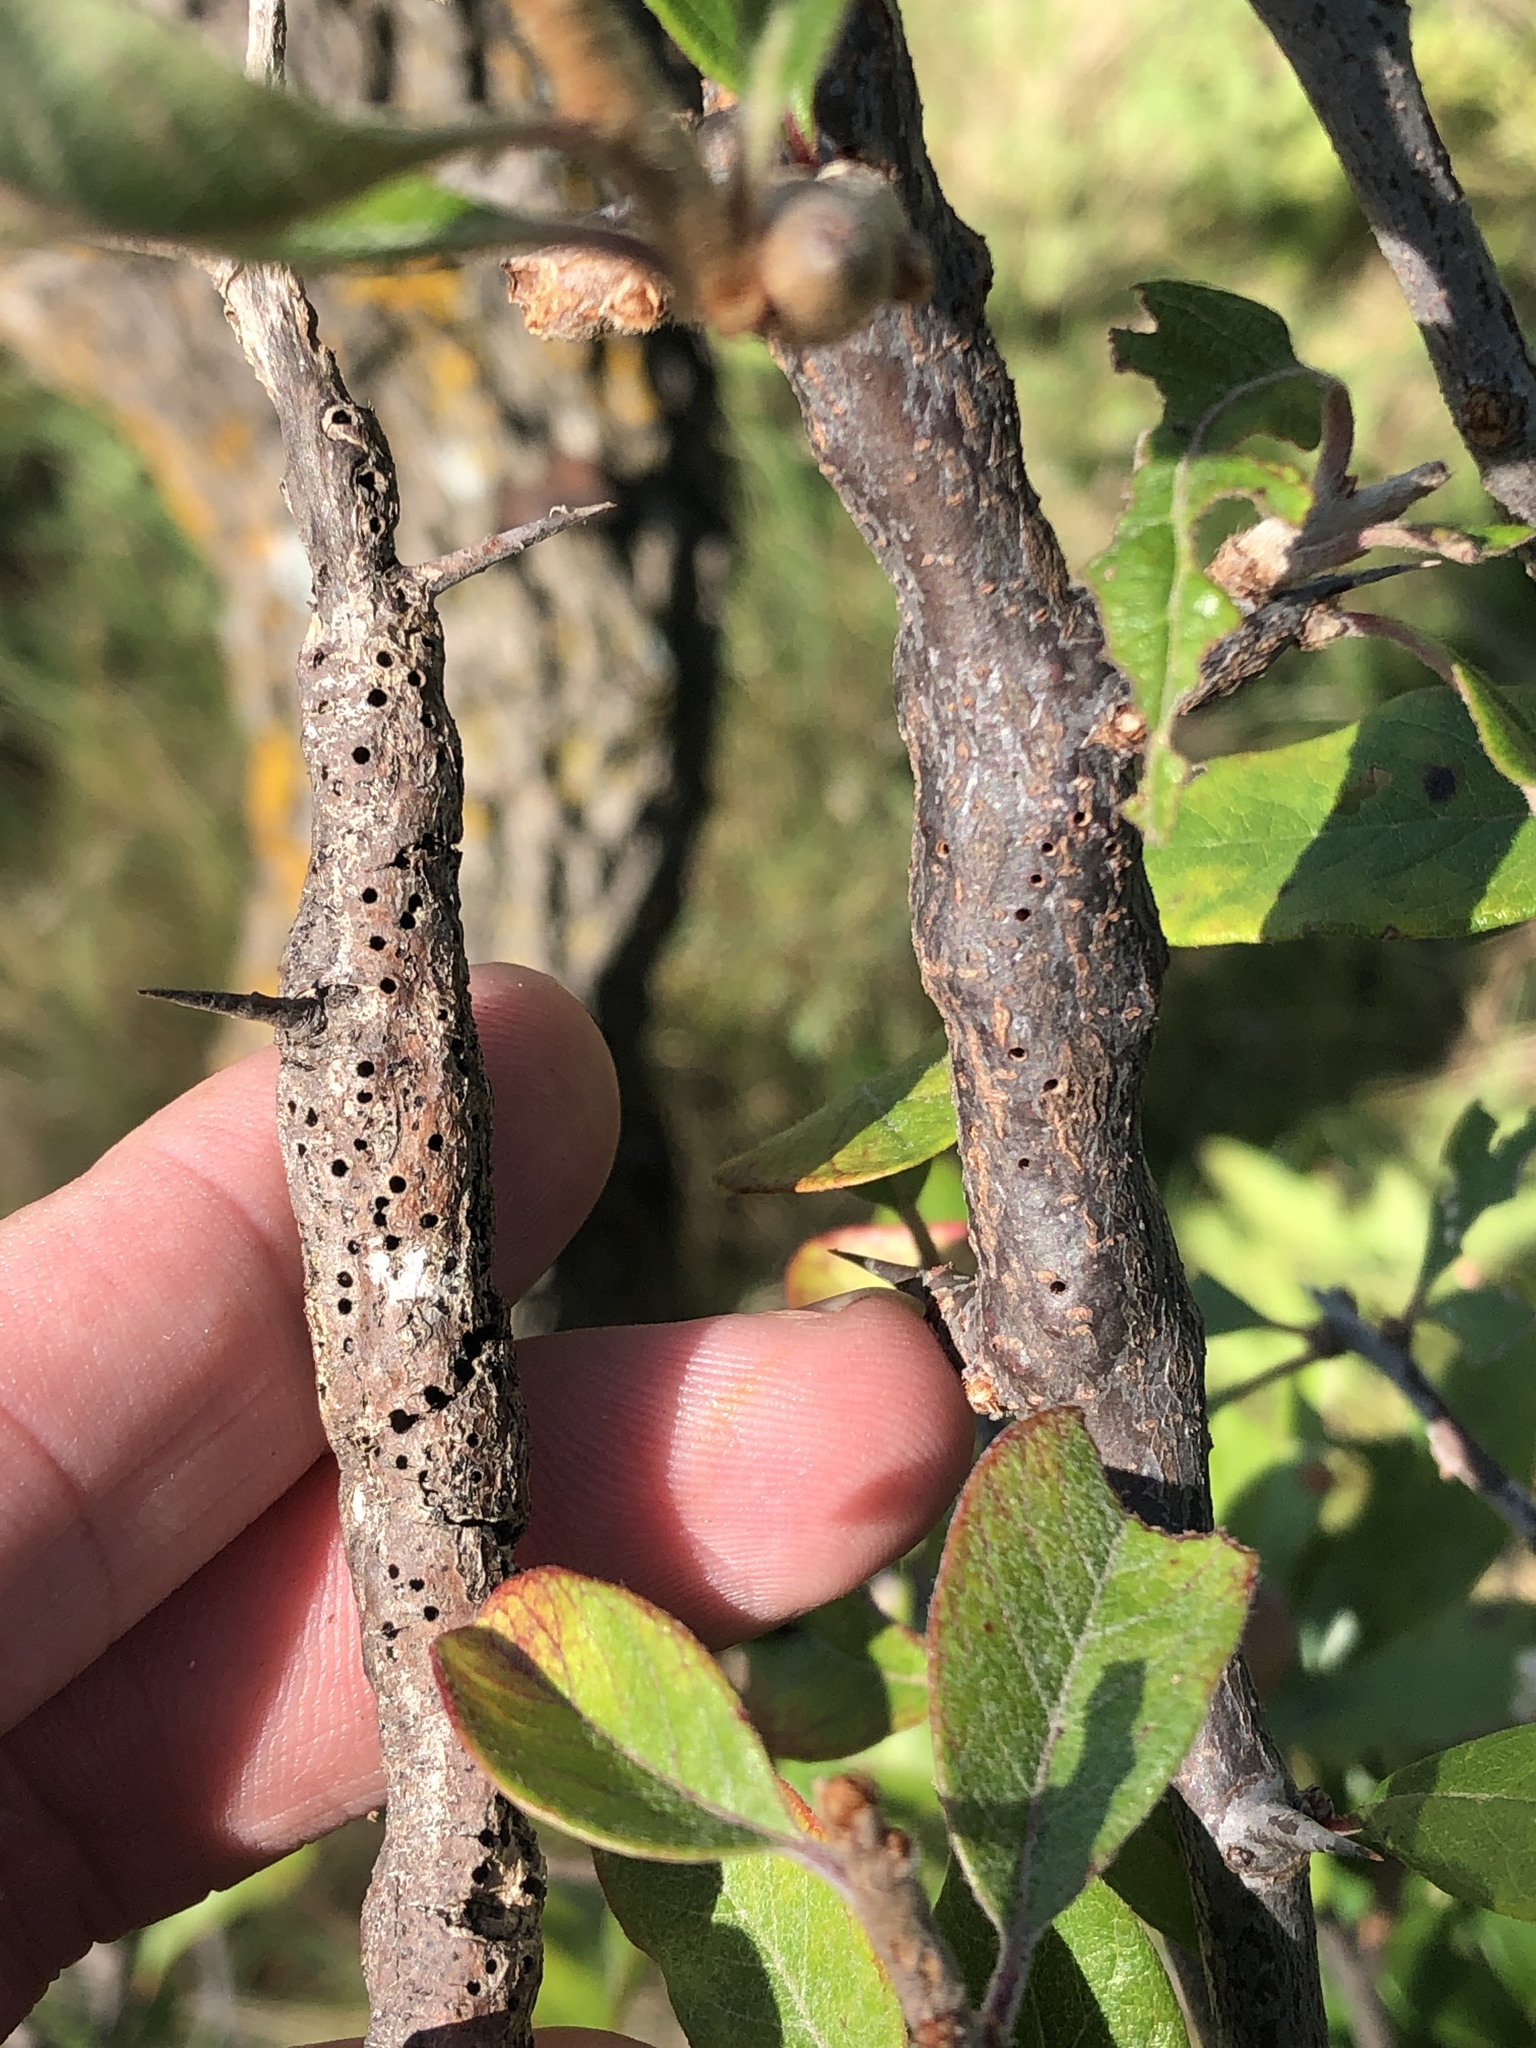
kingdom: Animalia
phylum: Arthropoda
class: Insecta
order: Diptera
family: Cecidomyiidae
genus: Bruggmanniella
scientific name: Bruggmanniella bumeliae
